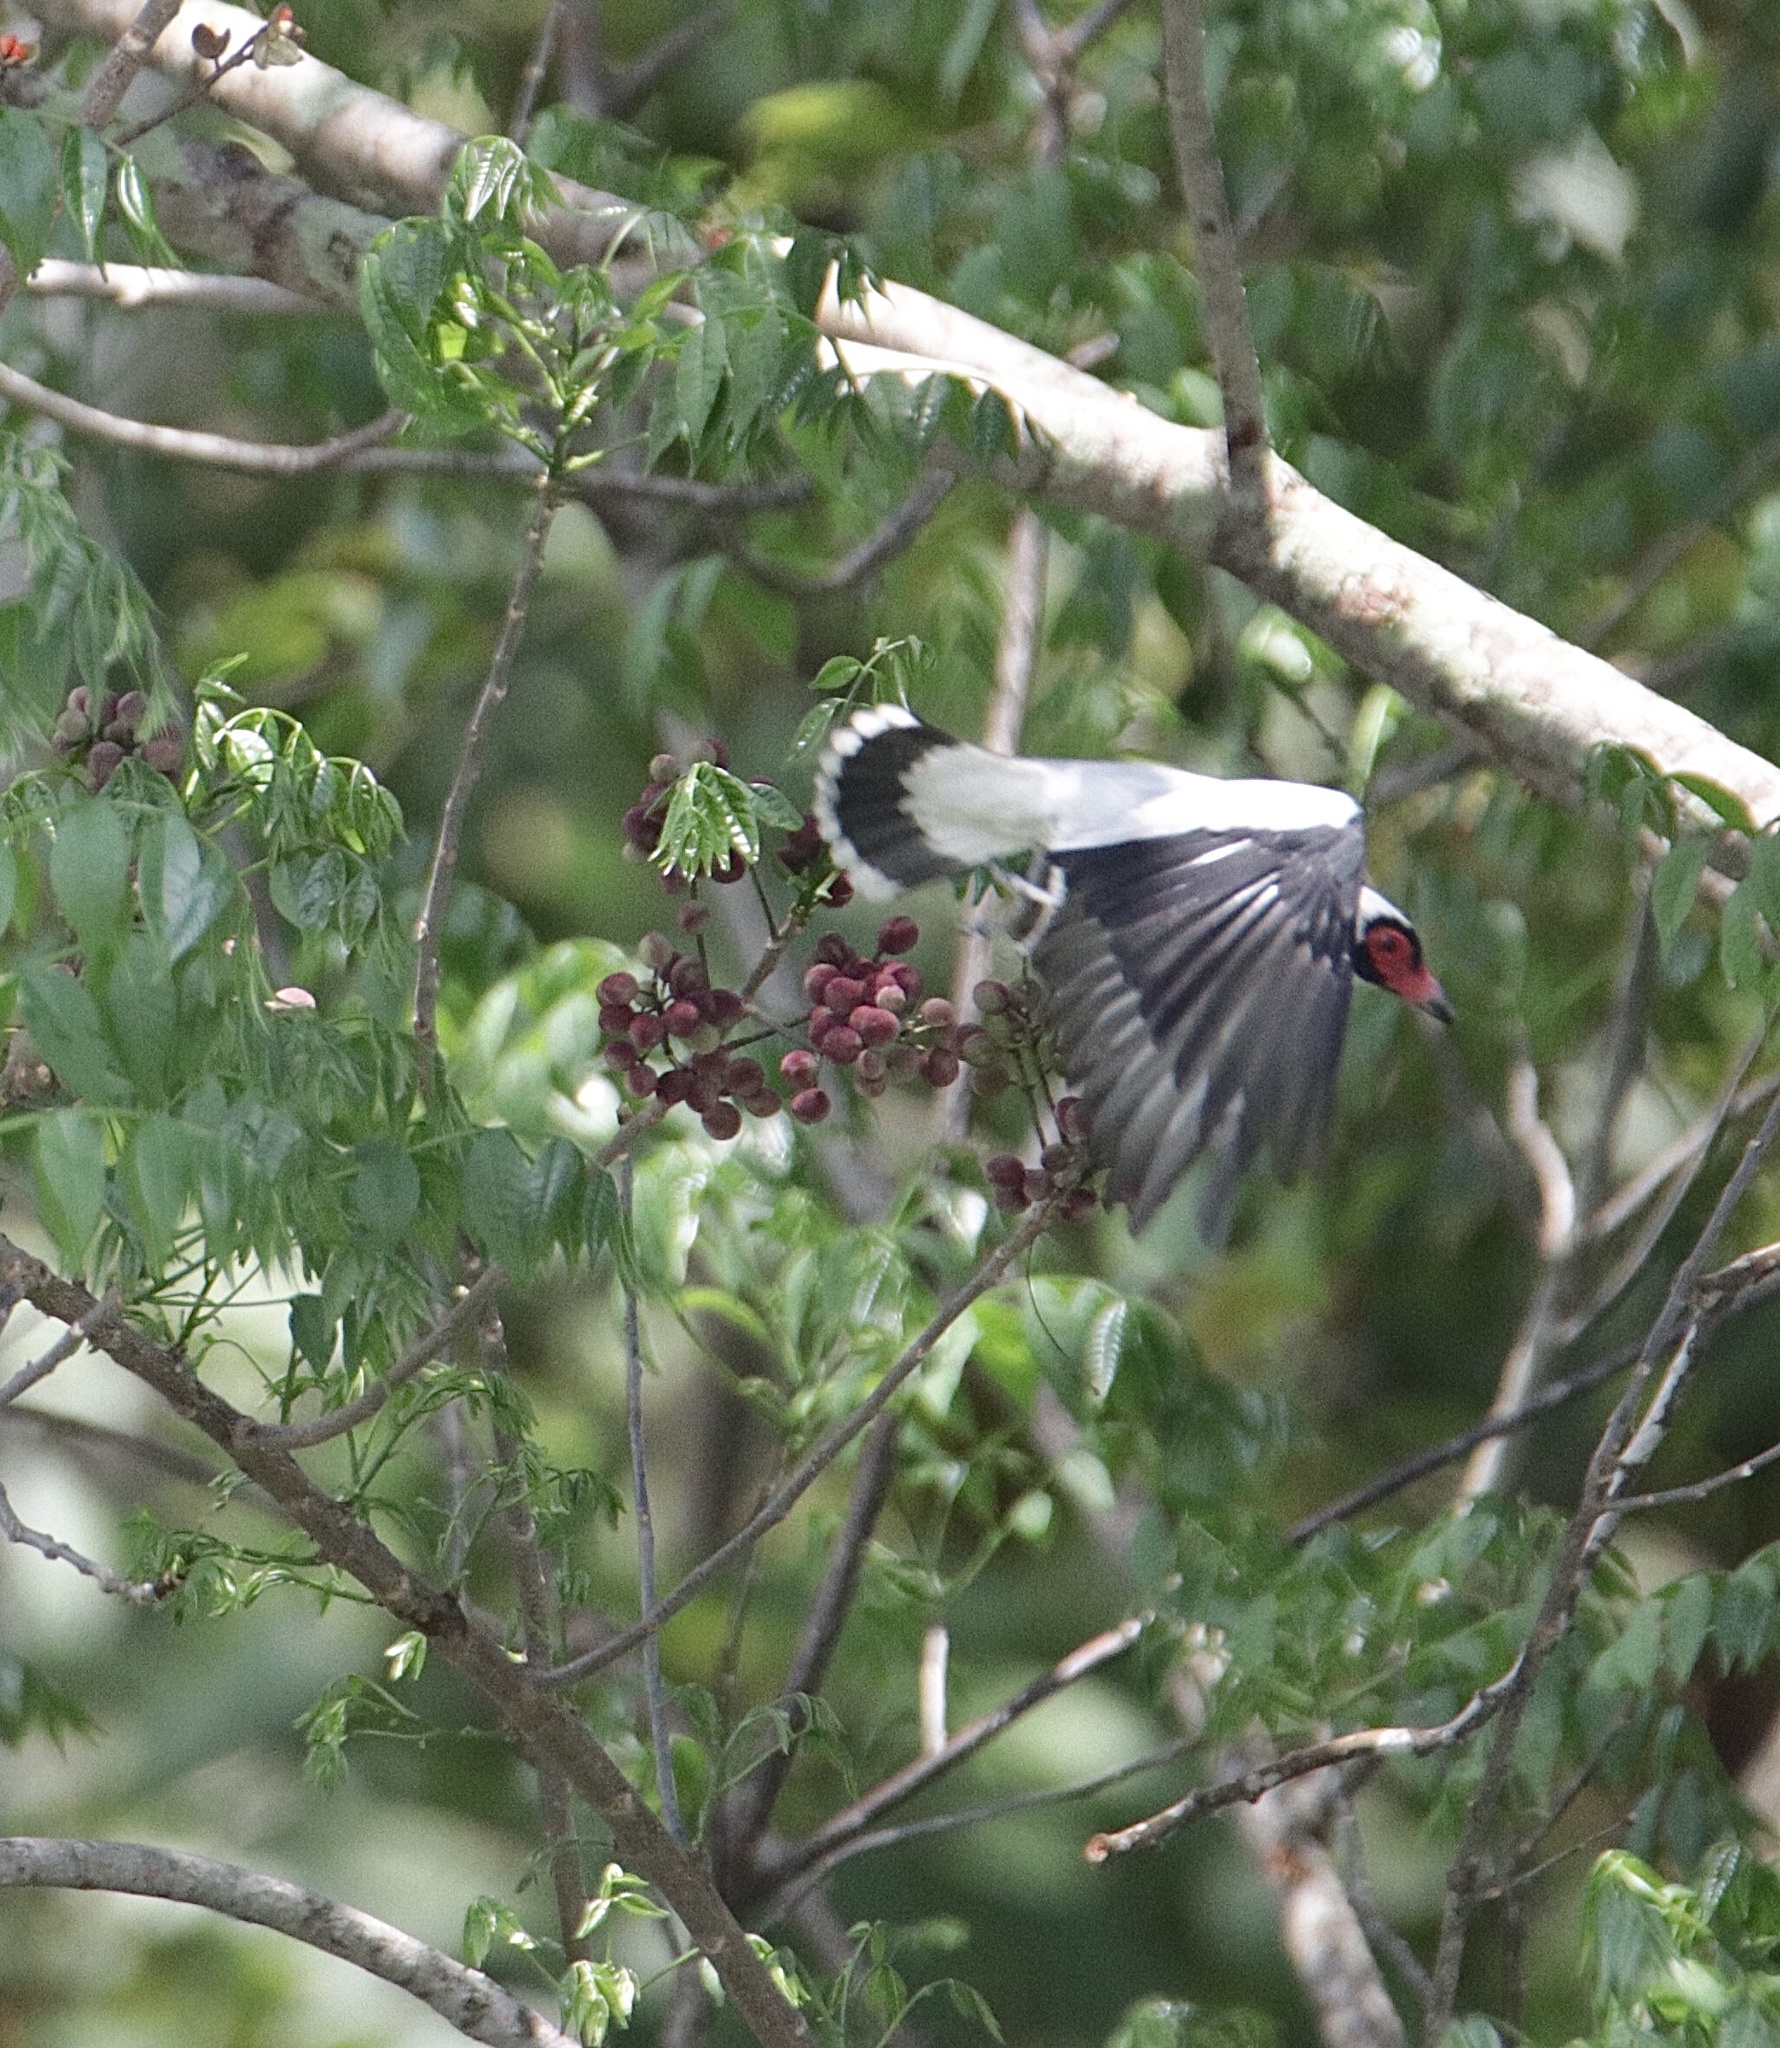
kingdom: Animalia
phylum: Chordata
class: Aves
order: Passeriformes
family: Cotingidae
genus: Tityra
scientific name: Tityra semifasciata
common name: Masked tityra
